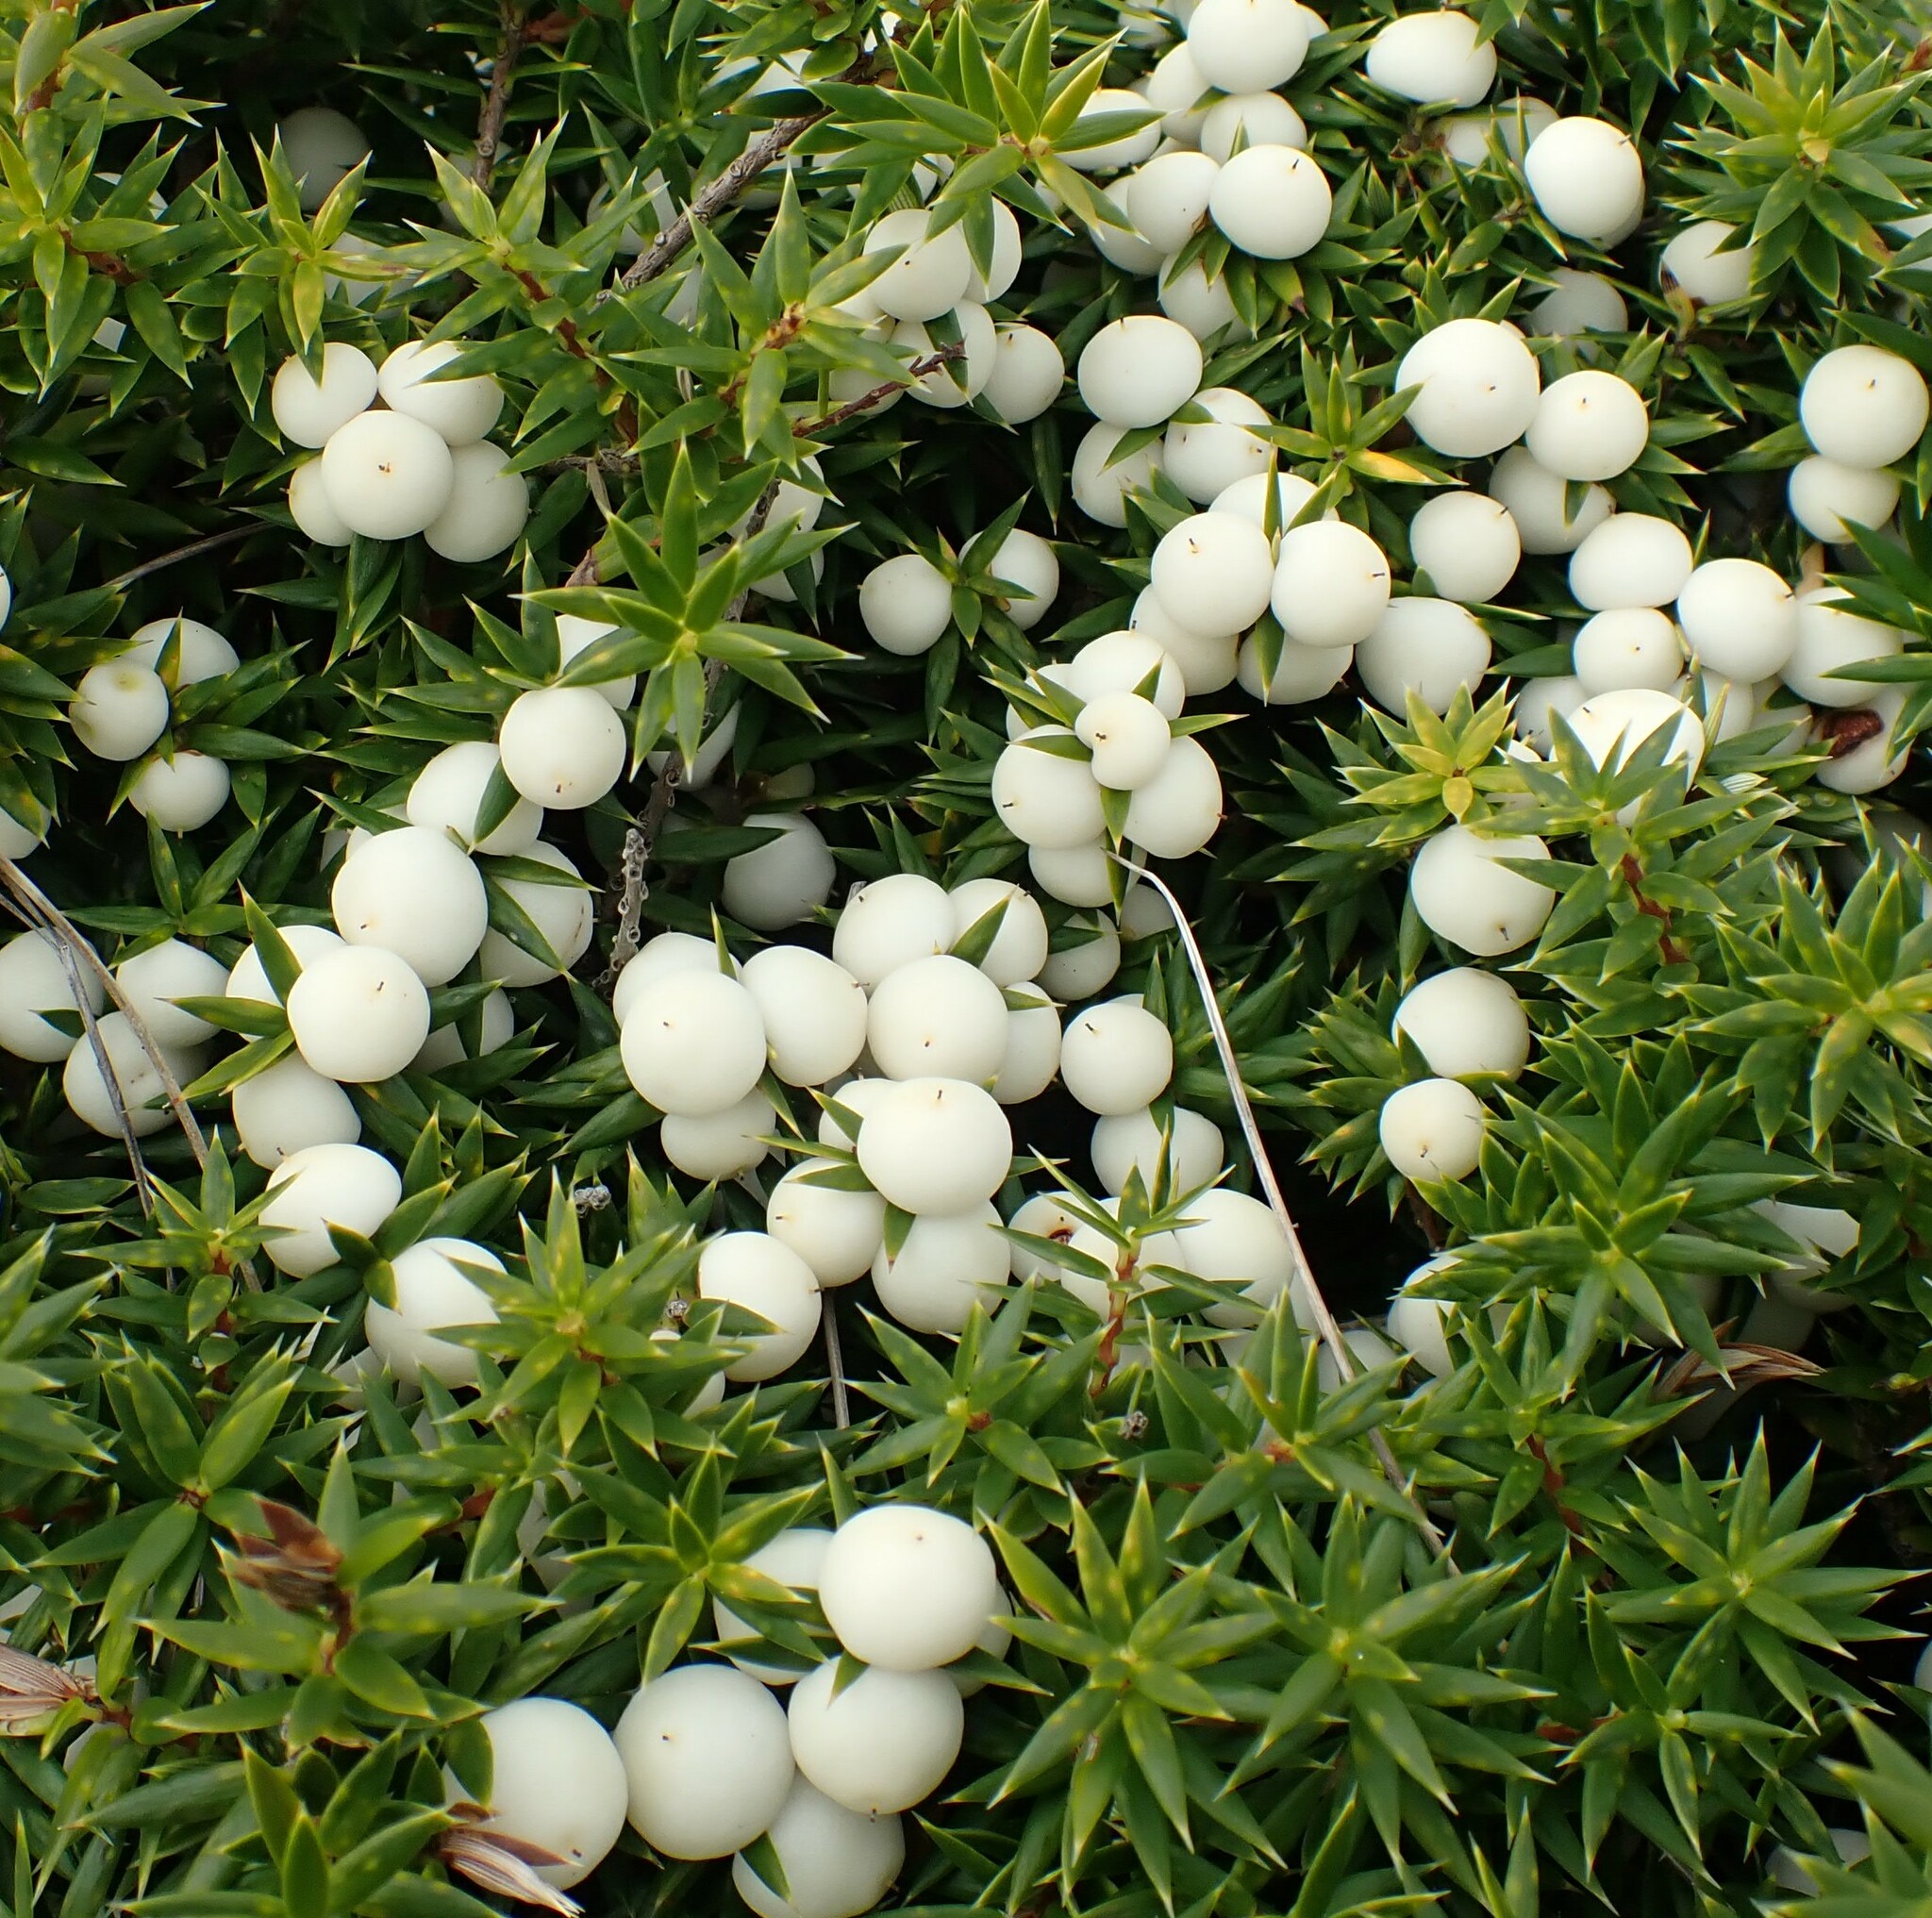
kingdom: Plantae
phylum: Tracheophyta
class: Magnoliopsida
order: Ericales
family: Ericaceae
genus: Leptecophylla
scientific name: Leptecophylla oxycedrus
